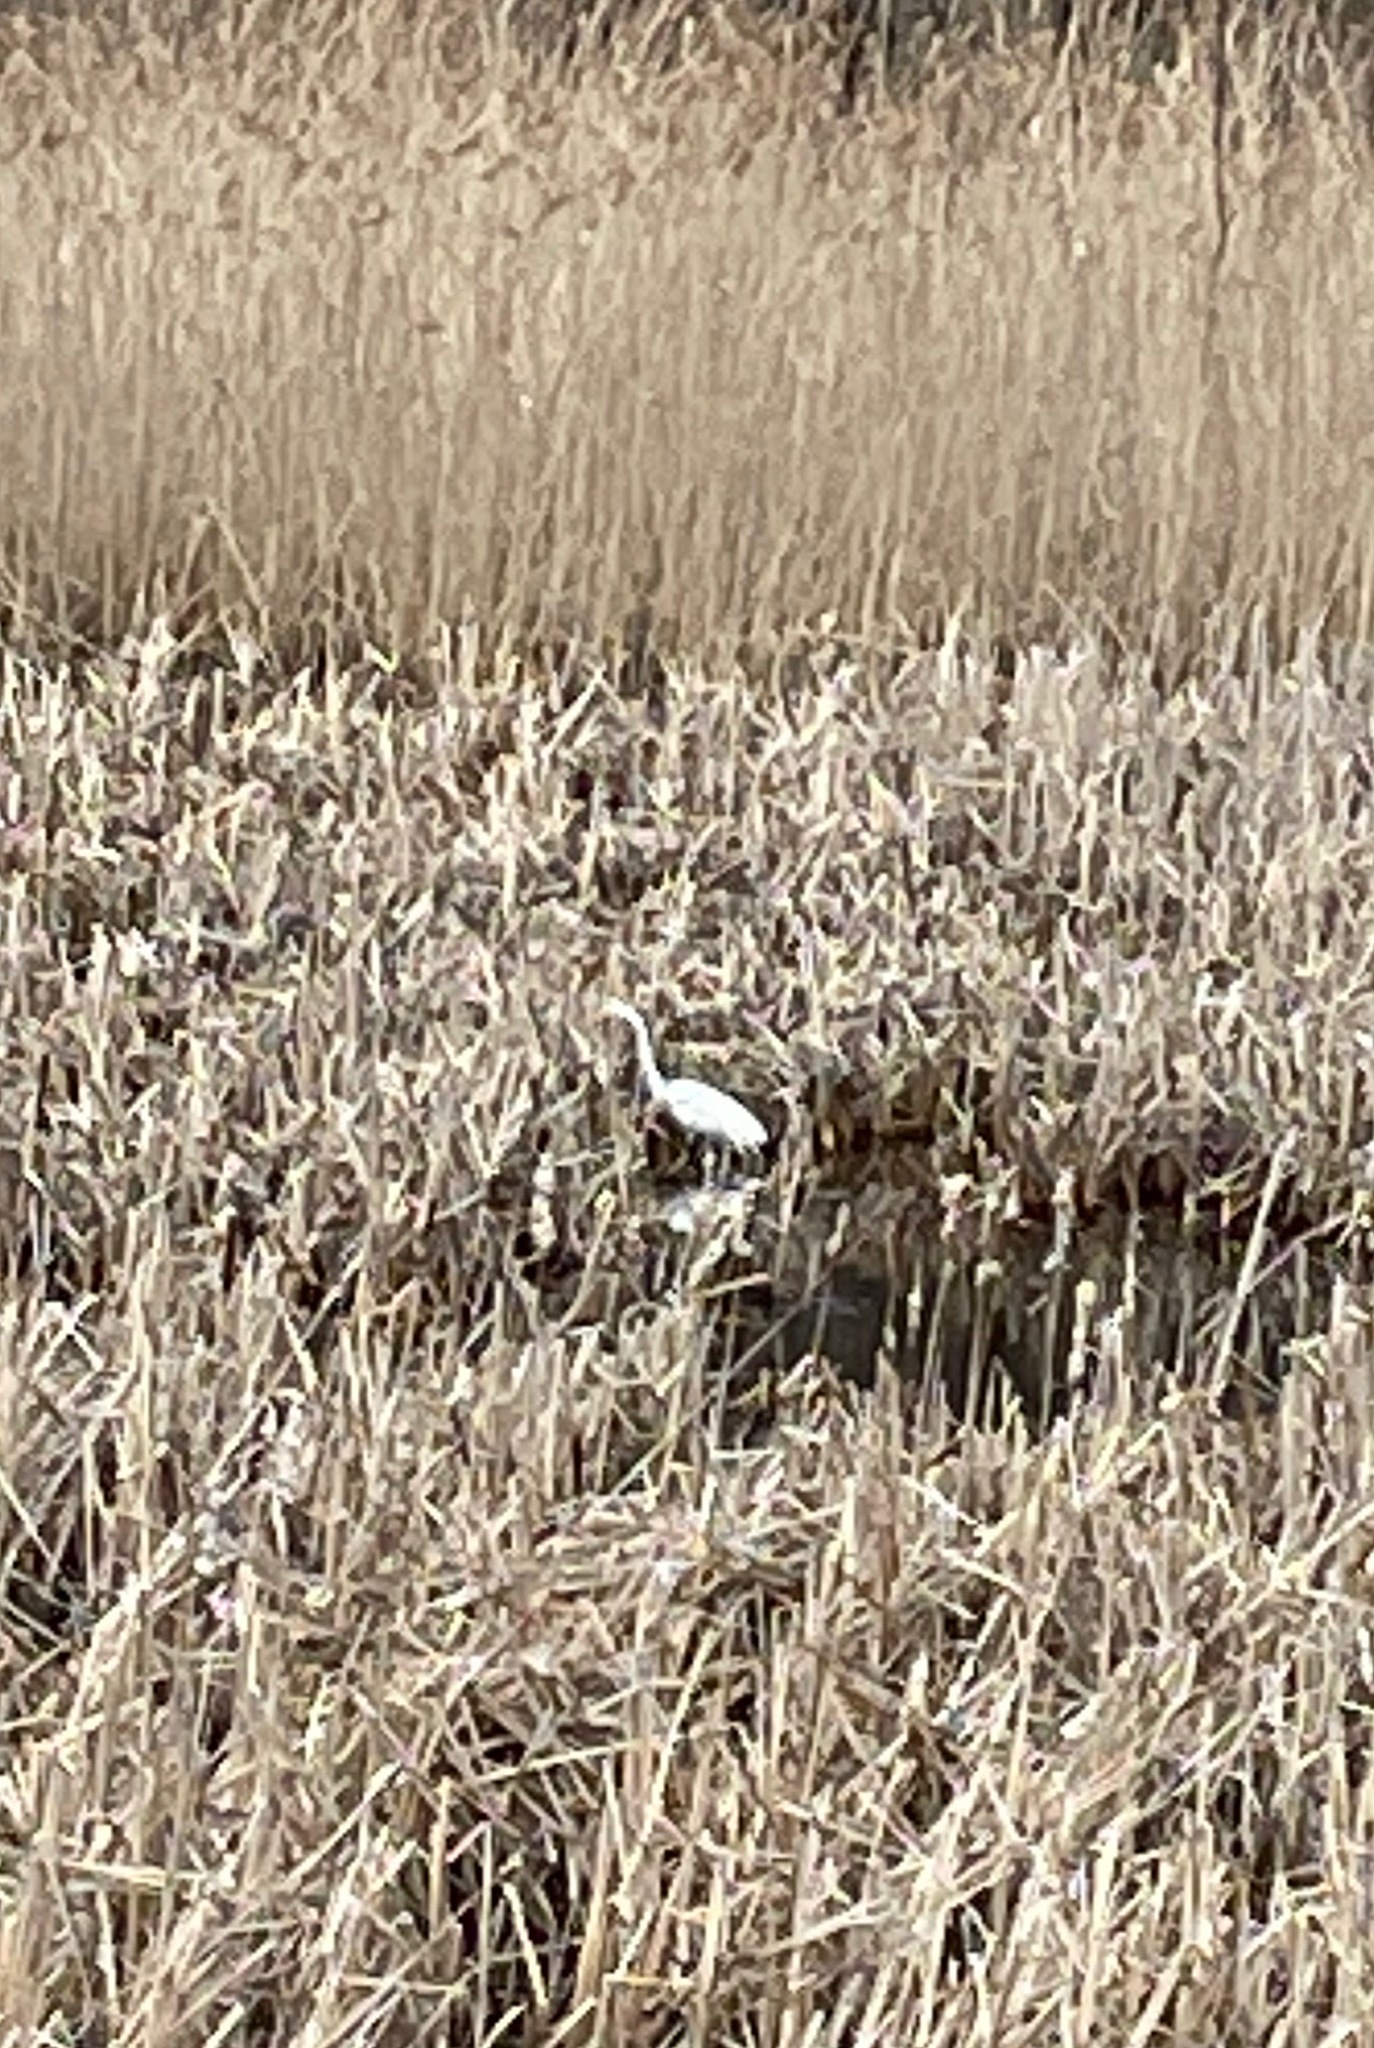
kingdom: Animalia
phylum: Chordata
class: Aves
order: Pelecaniformes
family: Ardeidae
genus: Ardea
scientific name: Ardea alba
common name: Great egret
